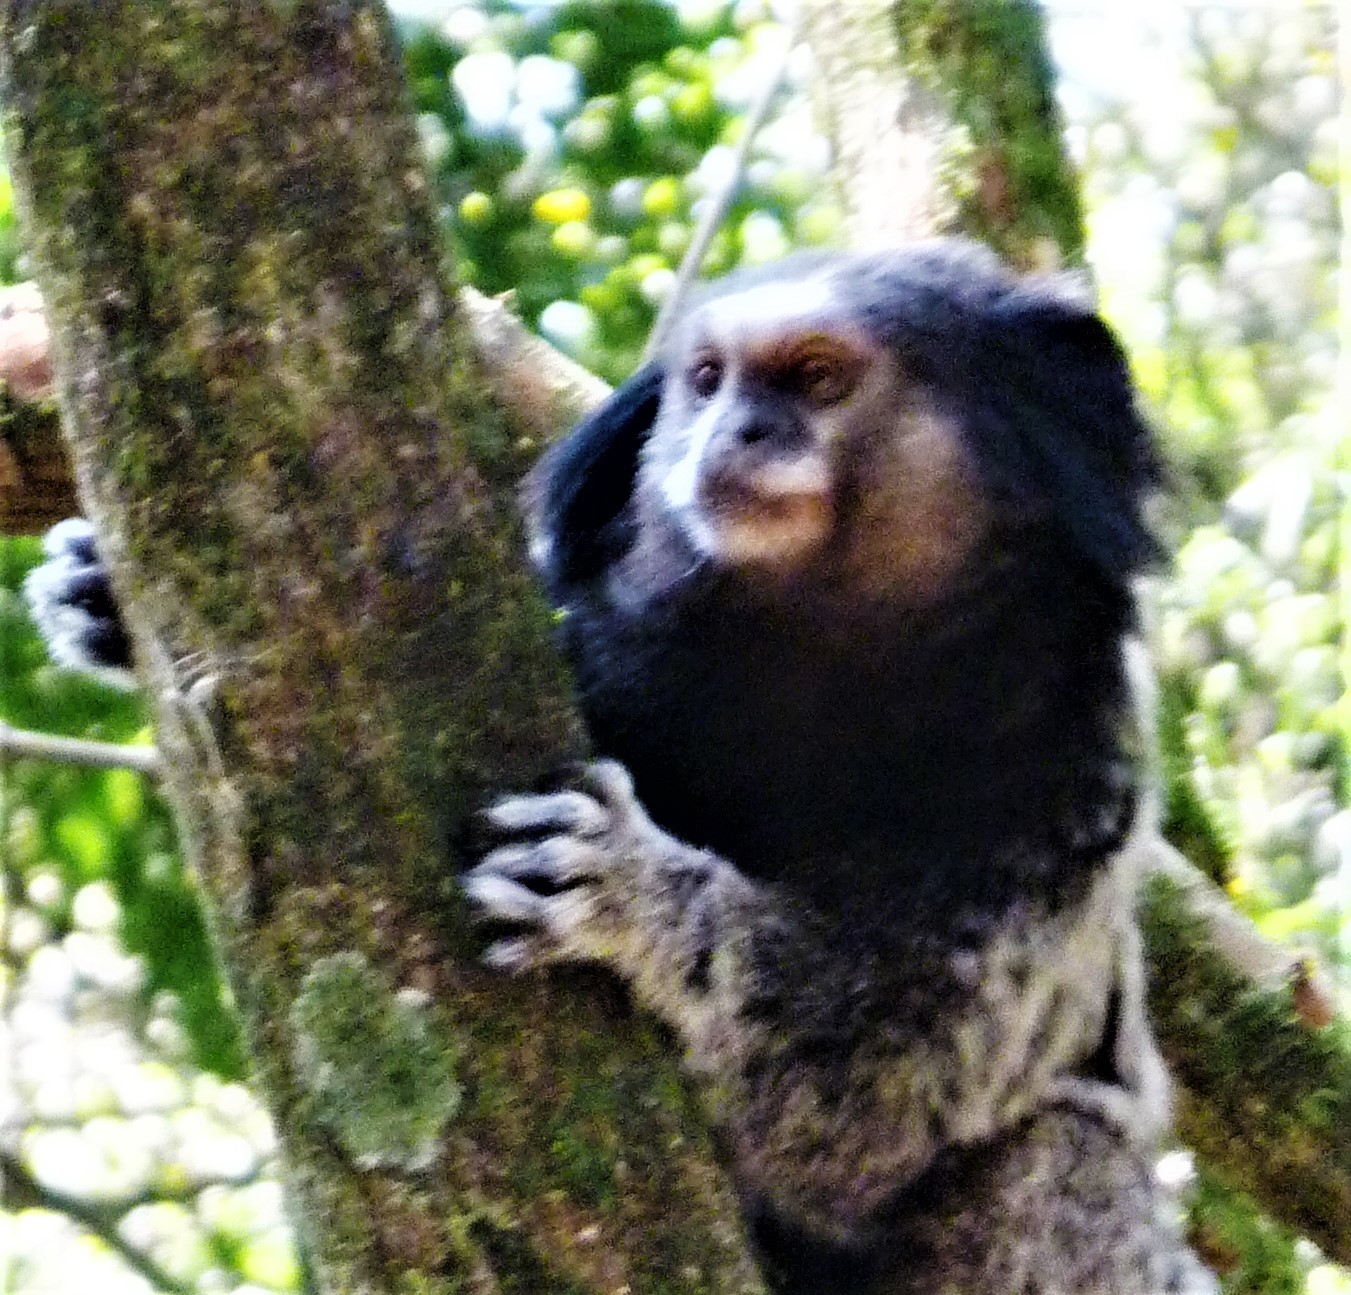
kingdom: Animalia
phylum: Chordata
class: Mammalia
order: Primates
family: Callitrichidae
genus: Callithrix
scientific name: Callithrix penicillata
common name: Black-tufted marmoset
